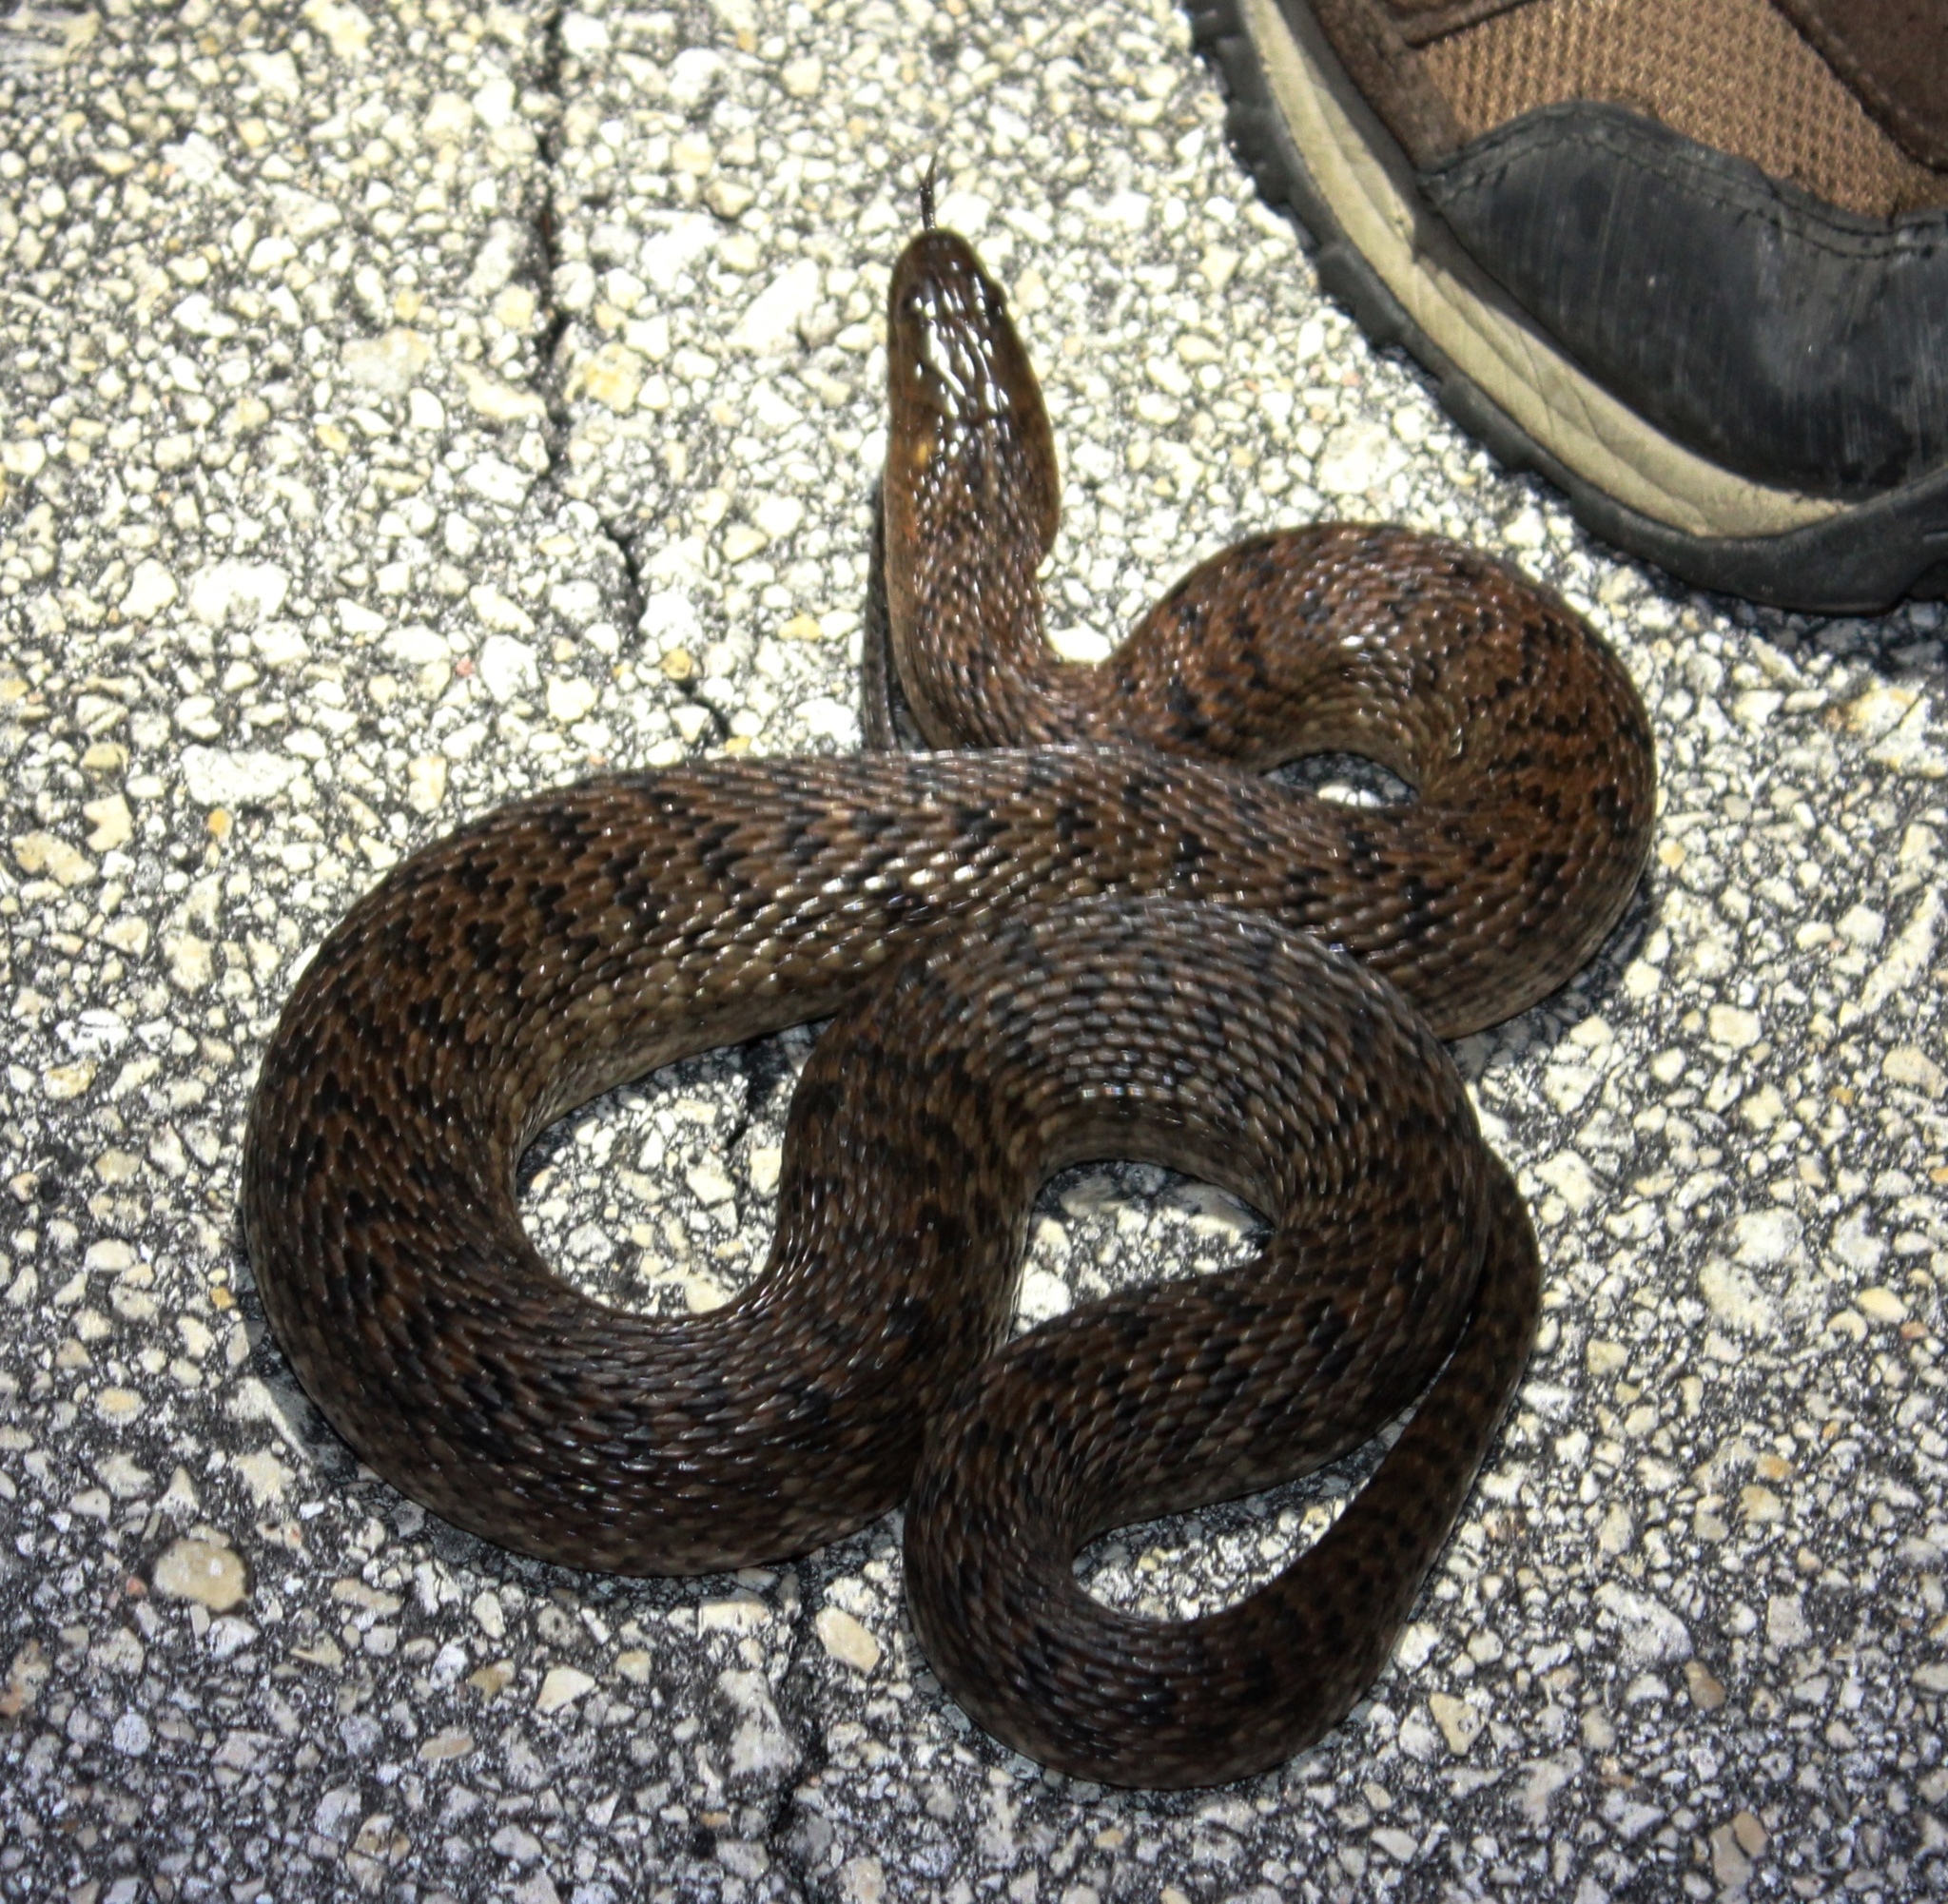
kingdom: Animalia
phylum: Chordata
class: Squamata
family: Colubridae
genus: Nerodia
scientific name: Nerodia floridana
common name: Florida green watersnake
